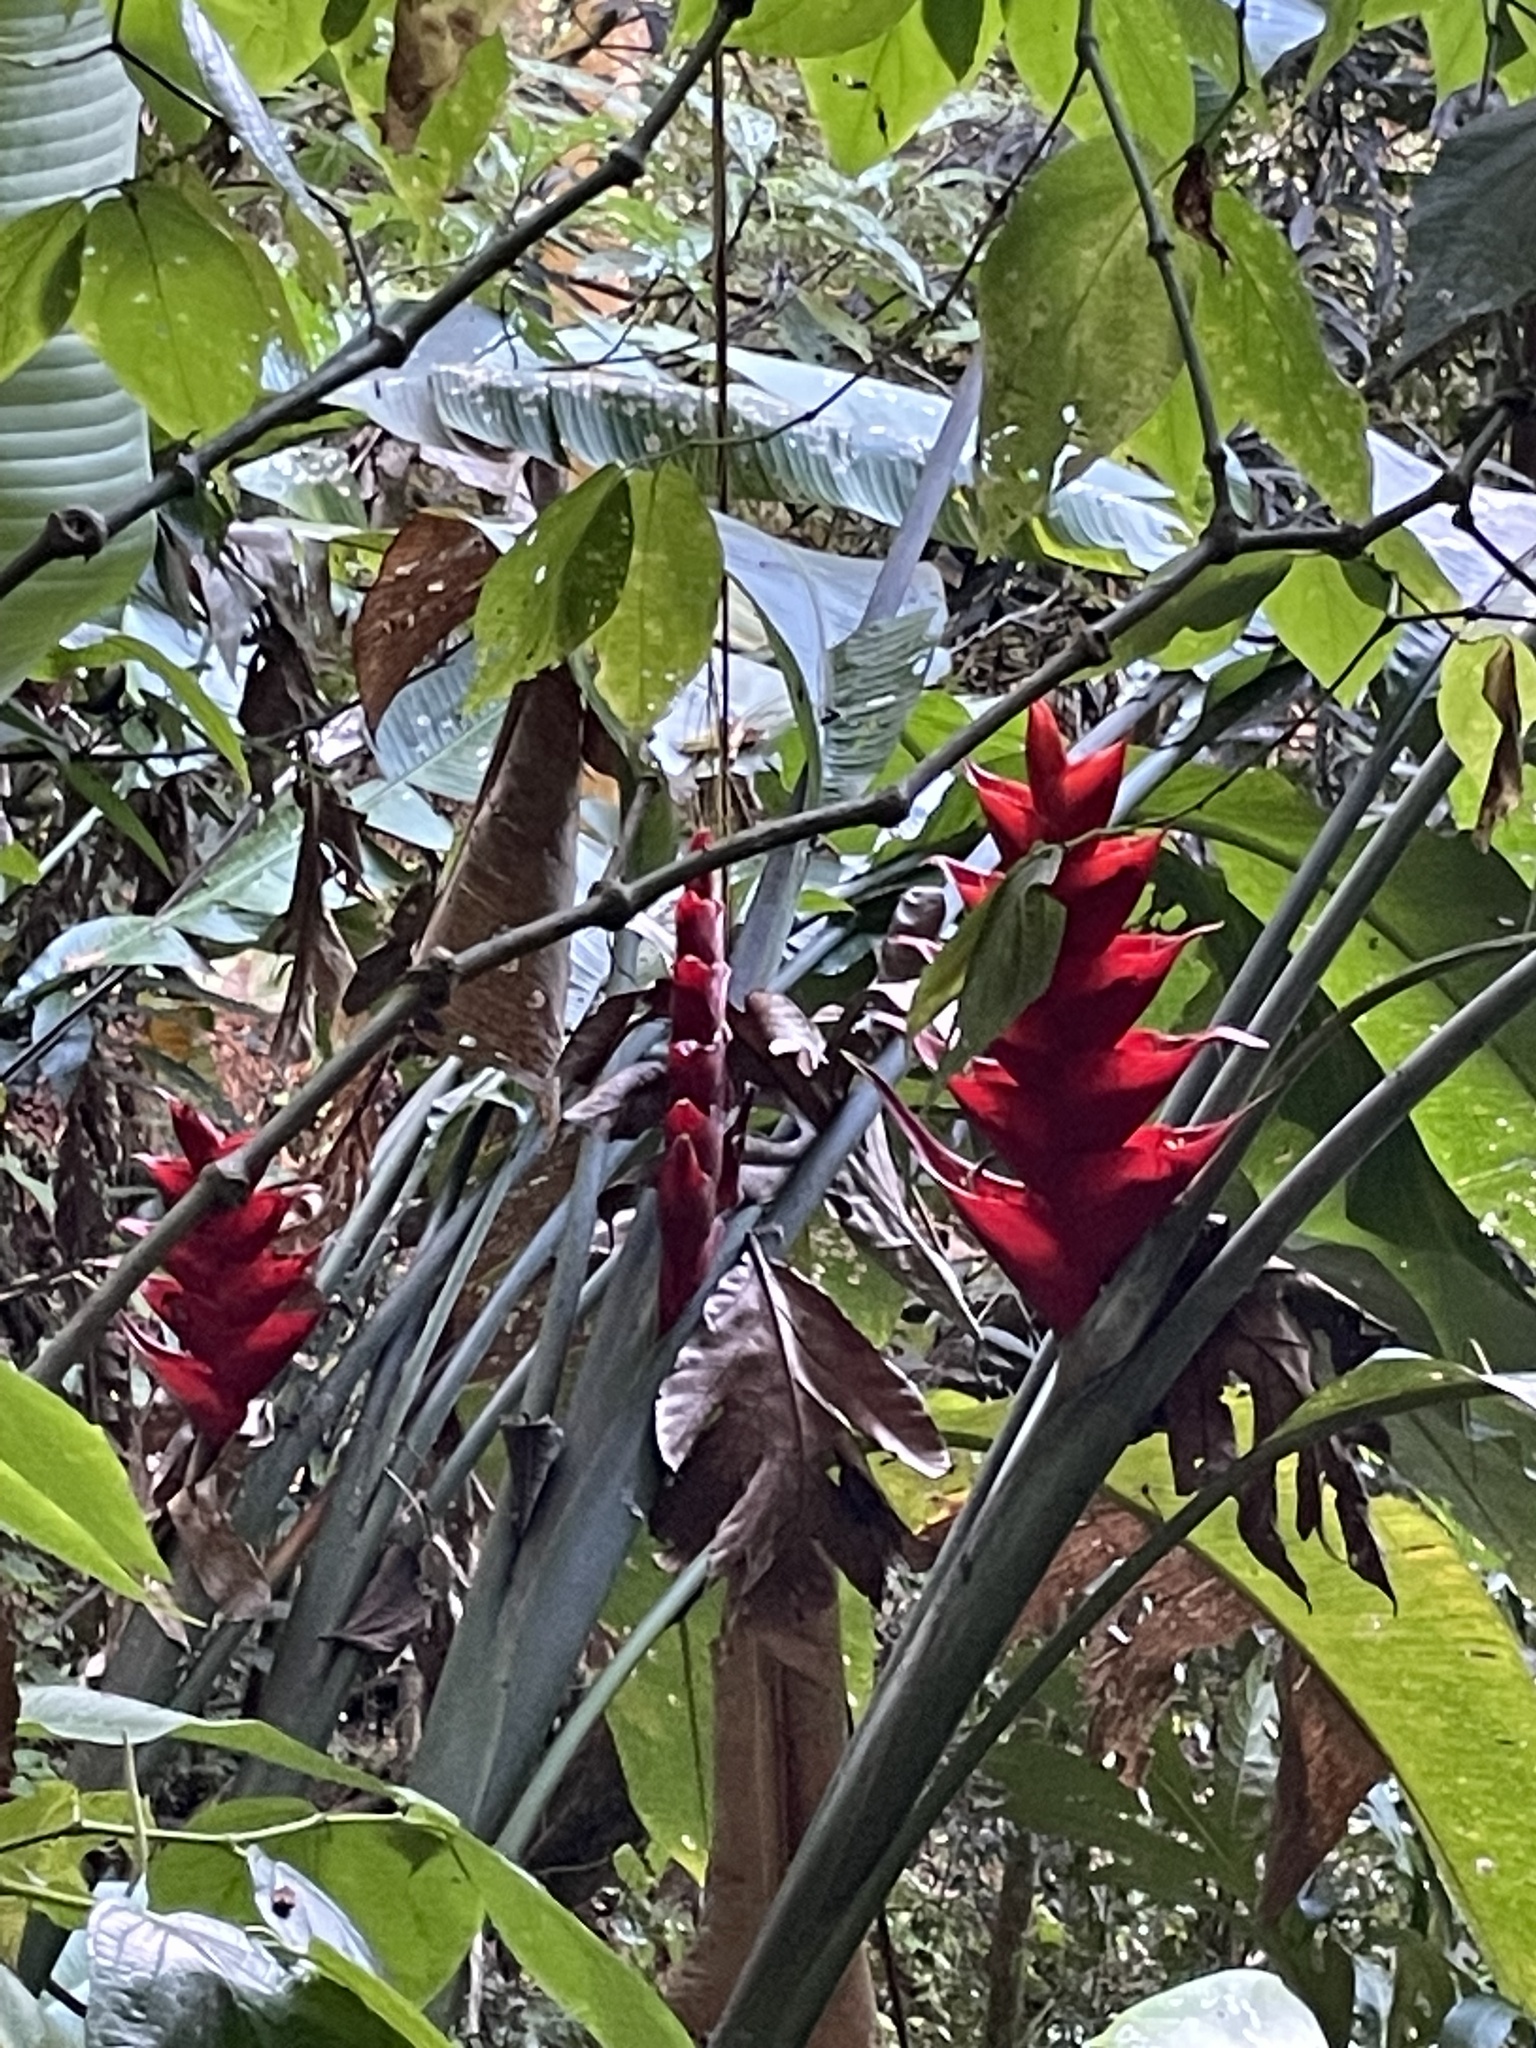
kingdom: Plantae
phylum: Tracheophyta
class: Liliopsida
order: Zingiberales
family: Heliconiaceae
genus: Heliconia
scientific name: Heliconia caribaea
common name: Wild plantain
